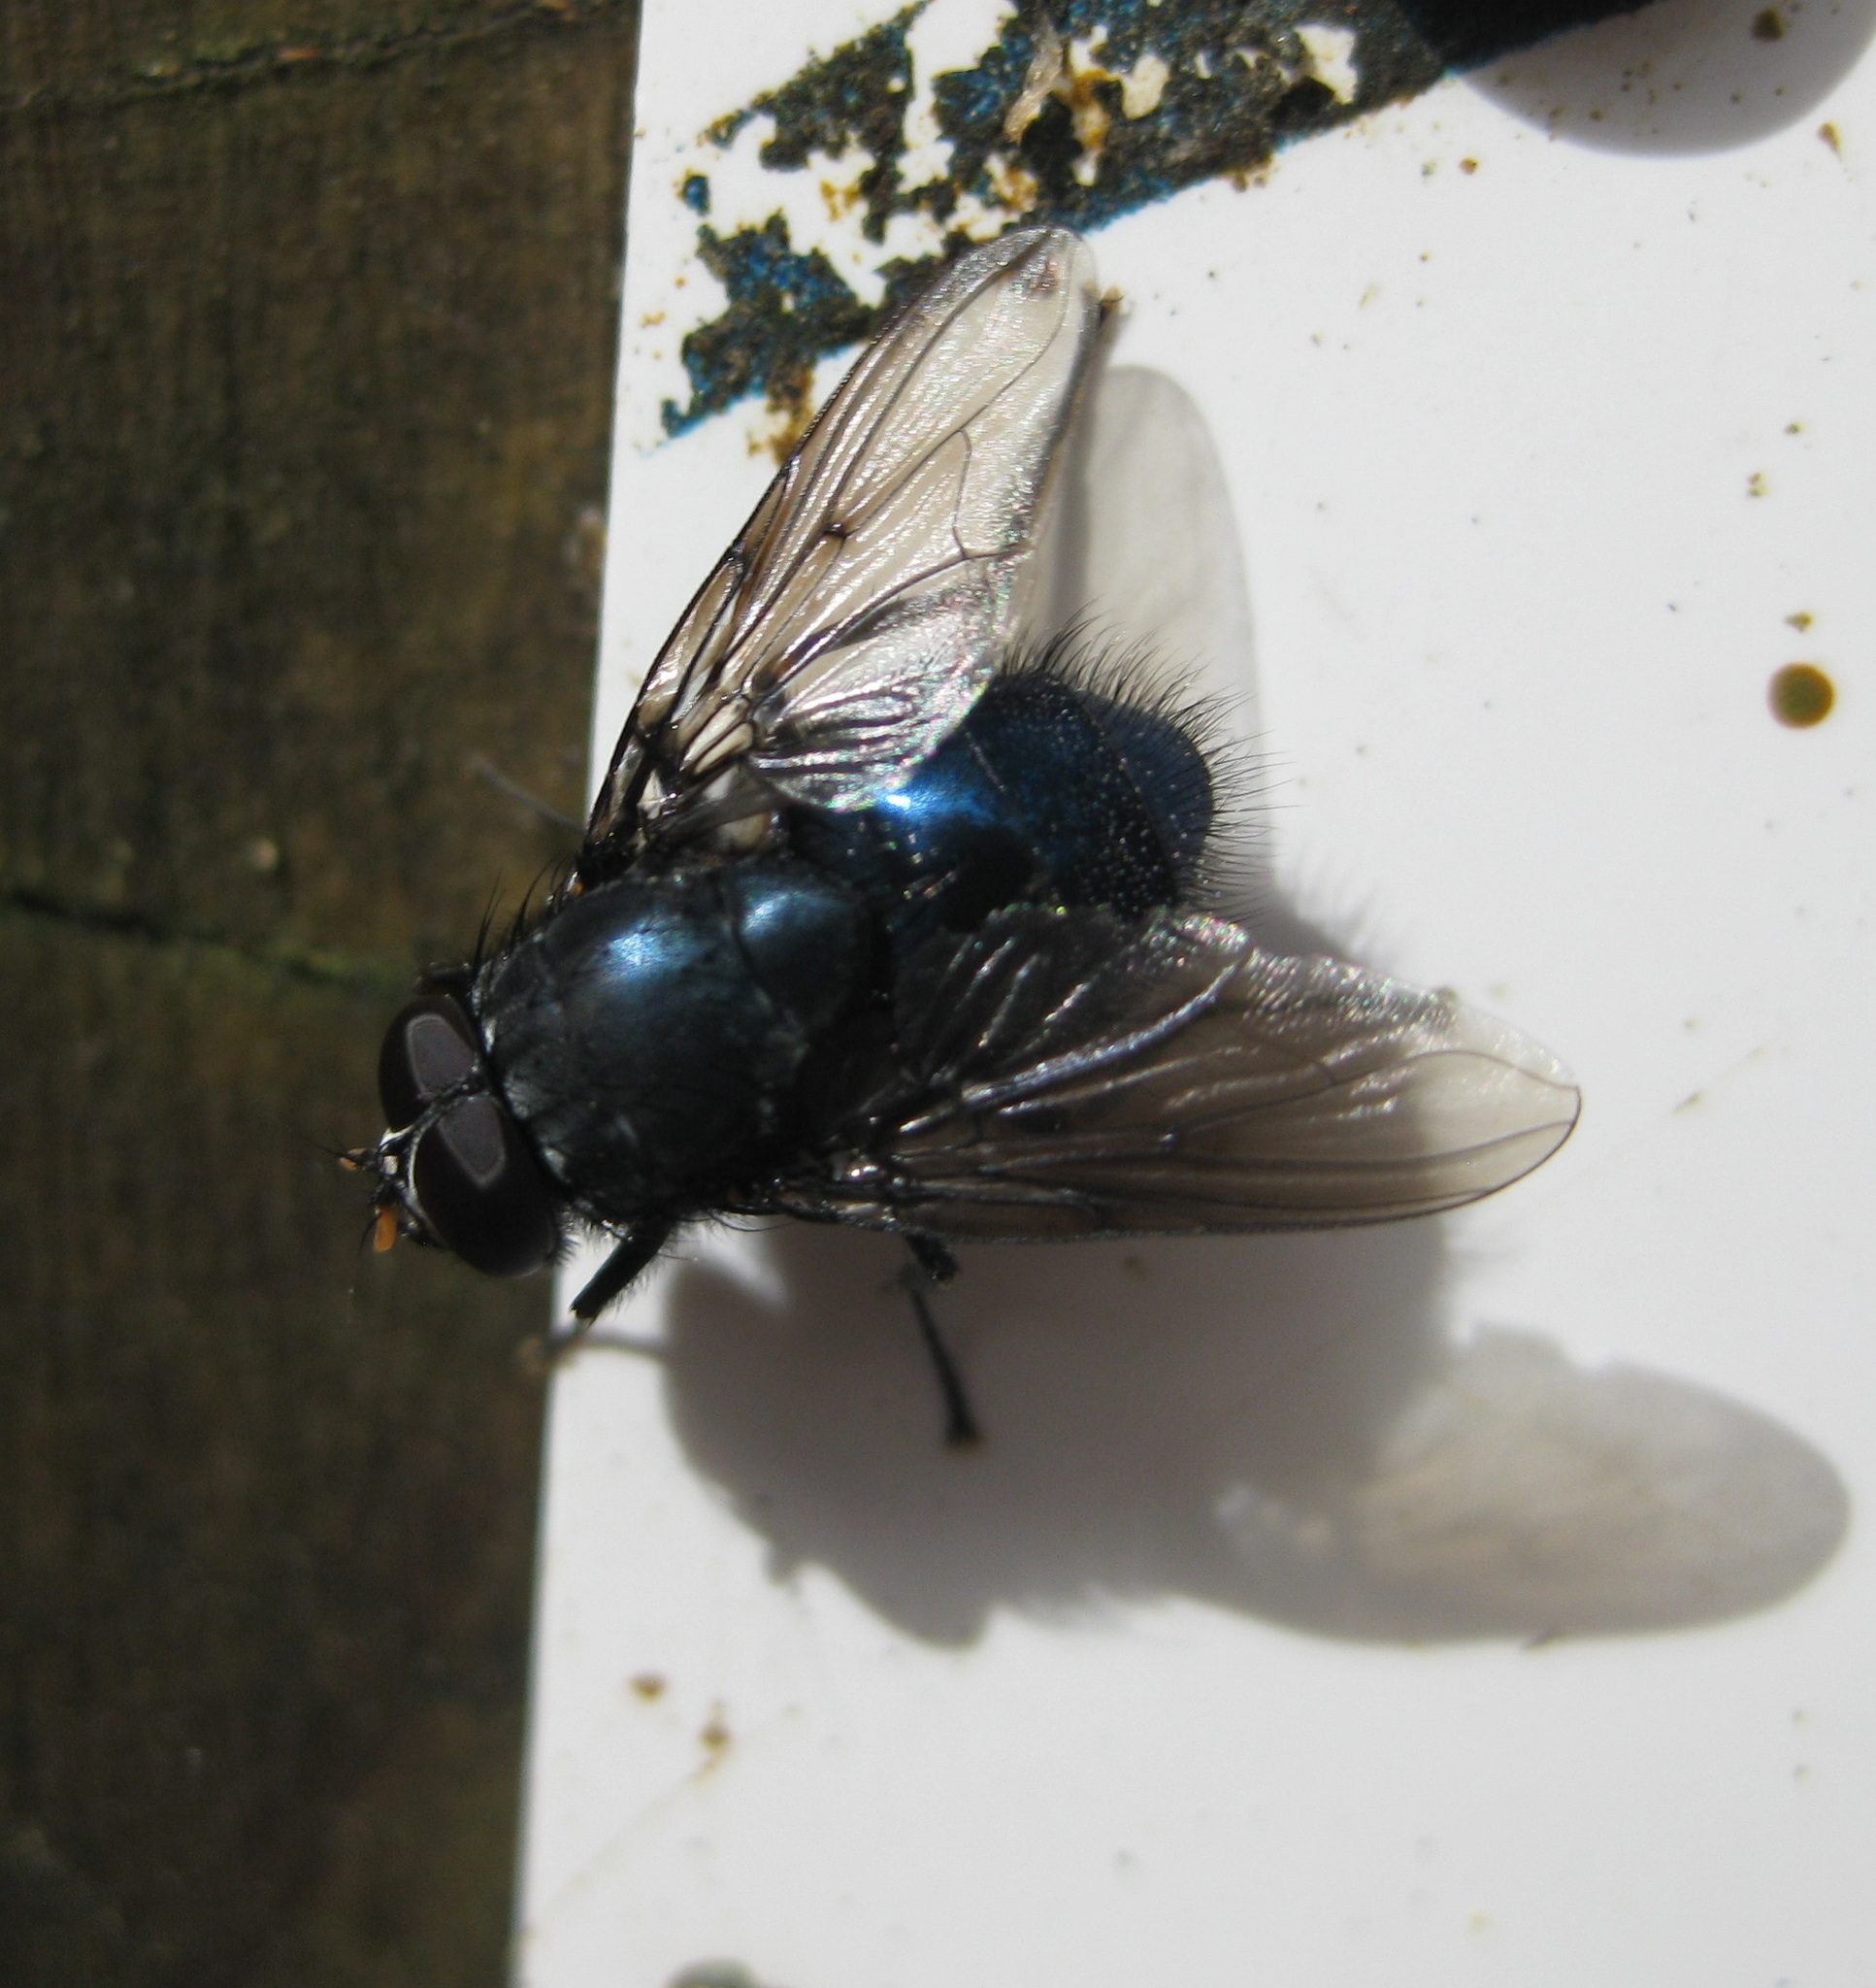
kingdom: Animalia
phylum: Arthropoda
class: Insecta
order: Diptera
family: Muscidae
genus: Calliphoroides
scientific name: Calliphoroides antennatis
